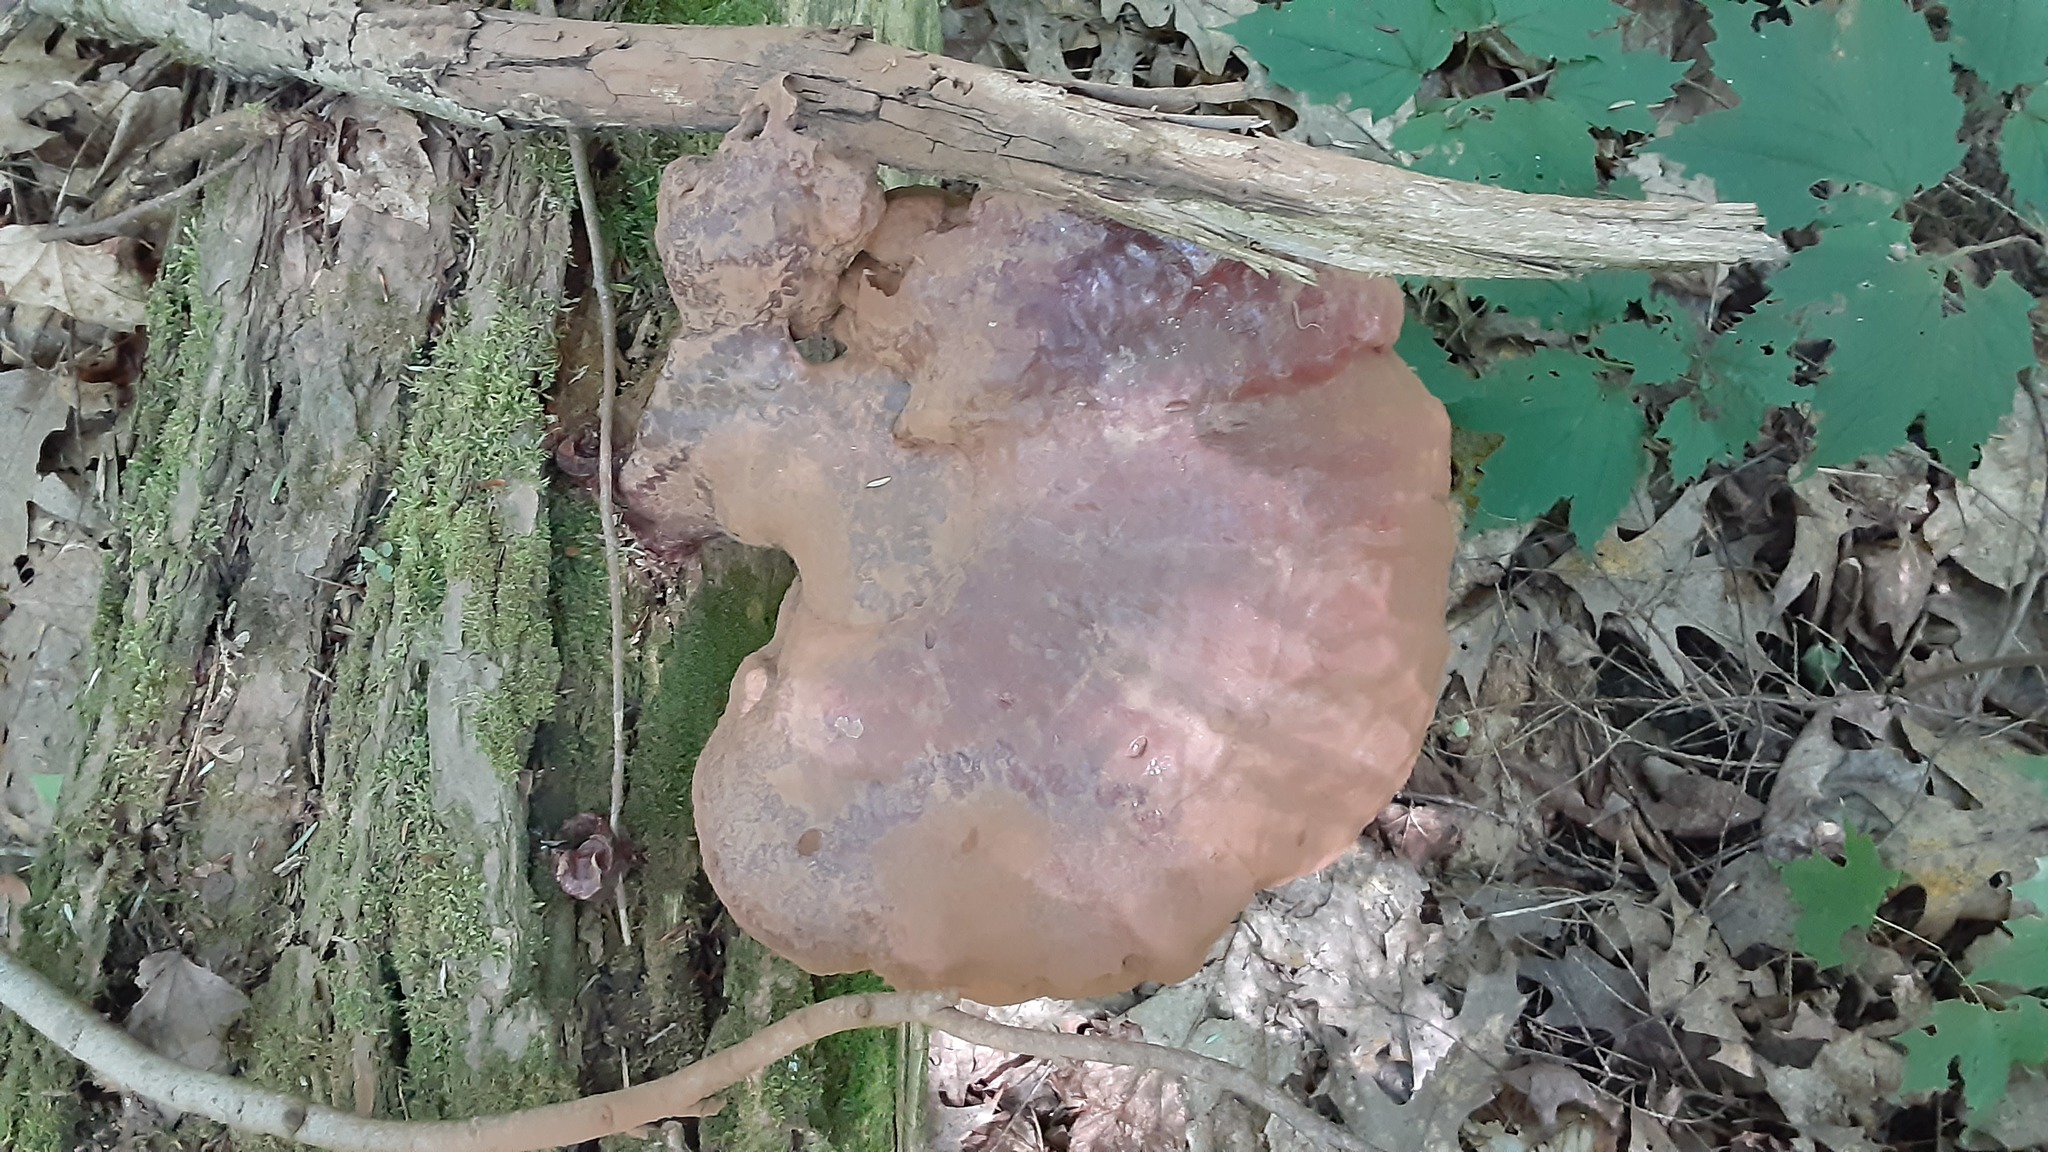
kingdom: Fungi
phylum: Basidiomycota
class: Agaricomycetes
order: Polyporales
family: Polyporaceae
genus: Ganoderma
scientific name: Ganoderma tsugae
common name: Hemlock varnish shelf
